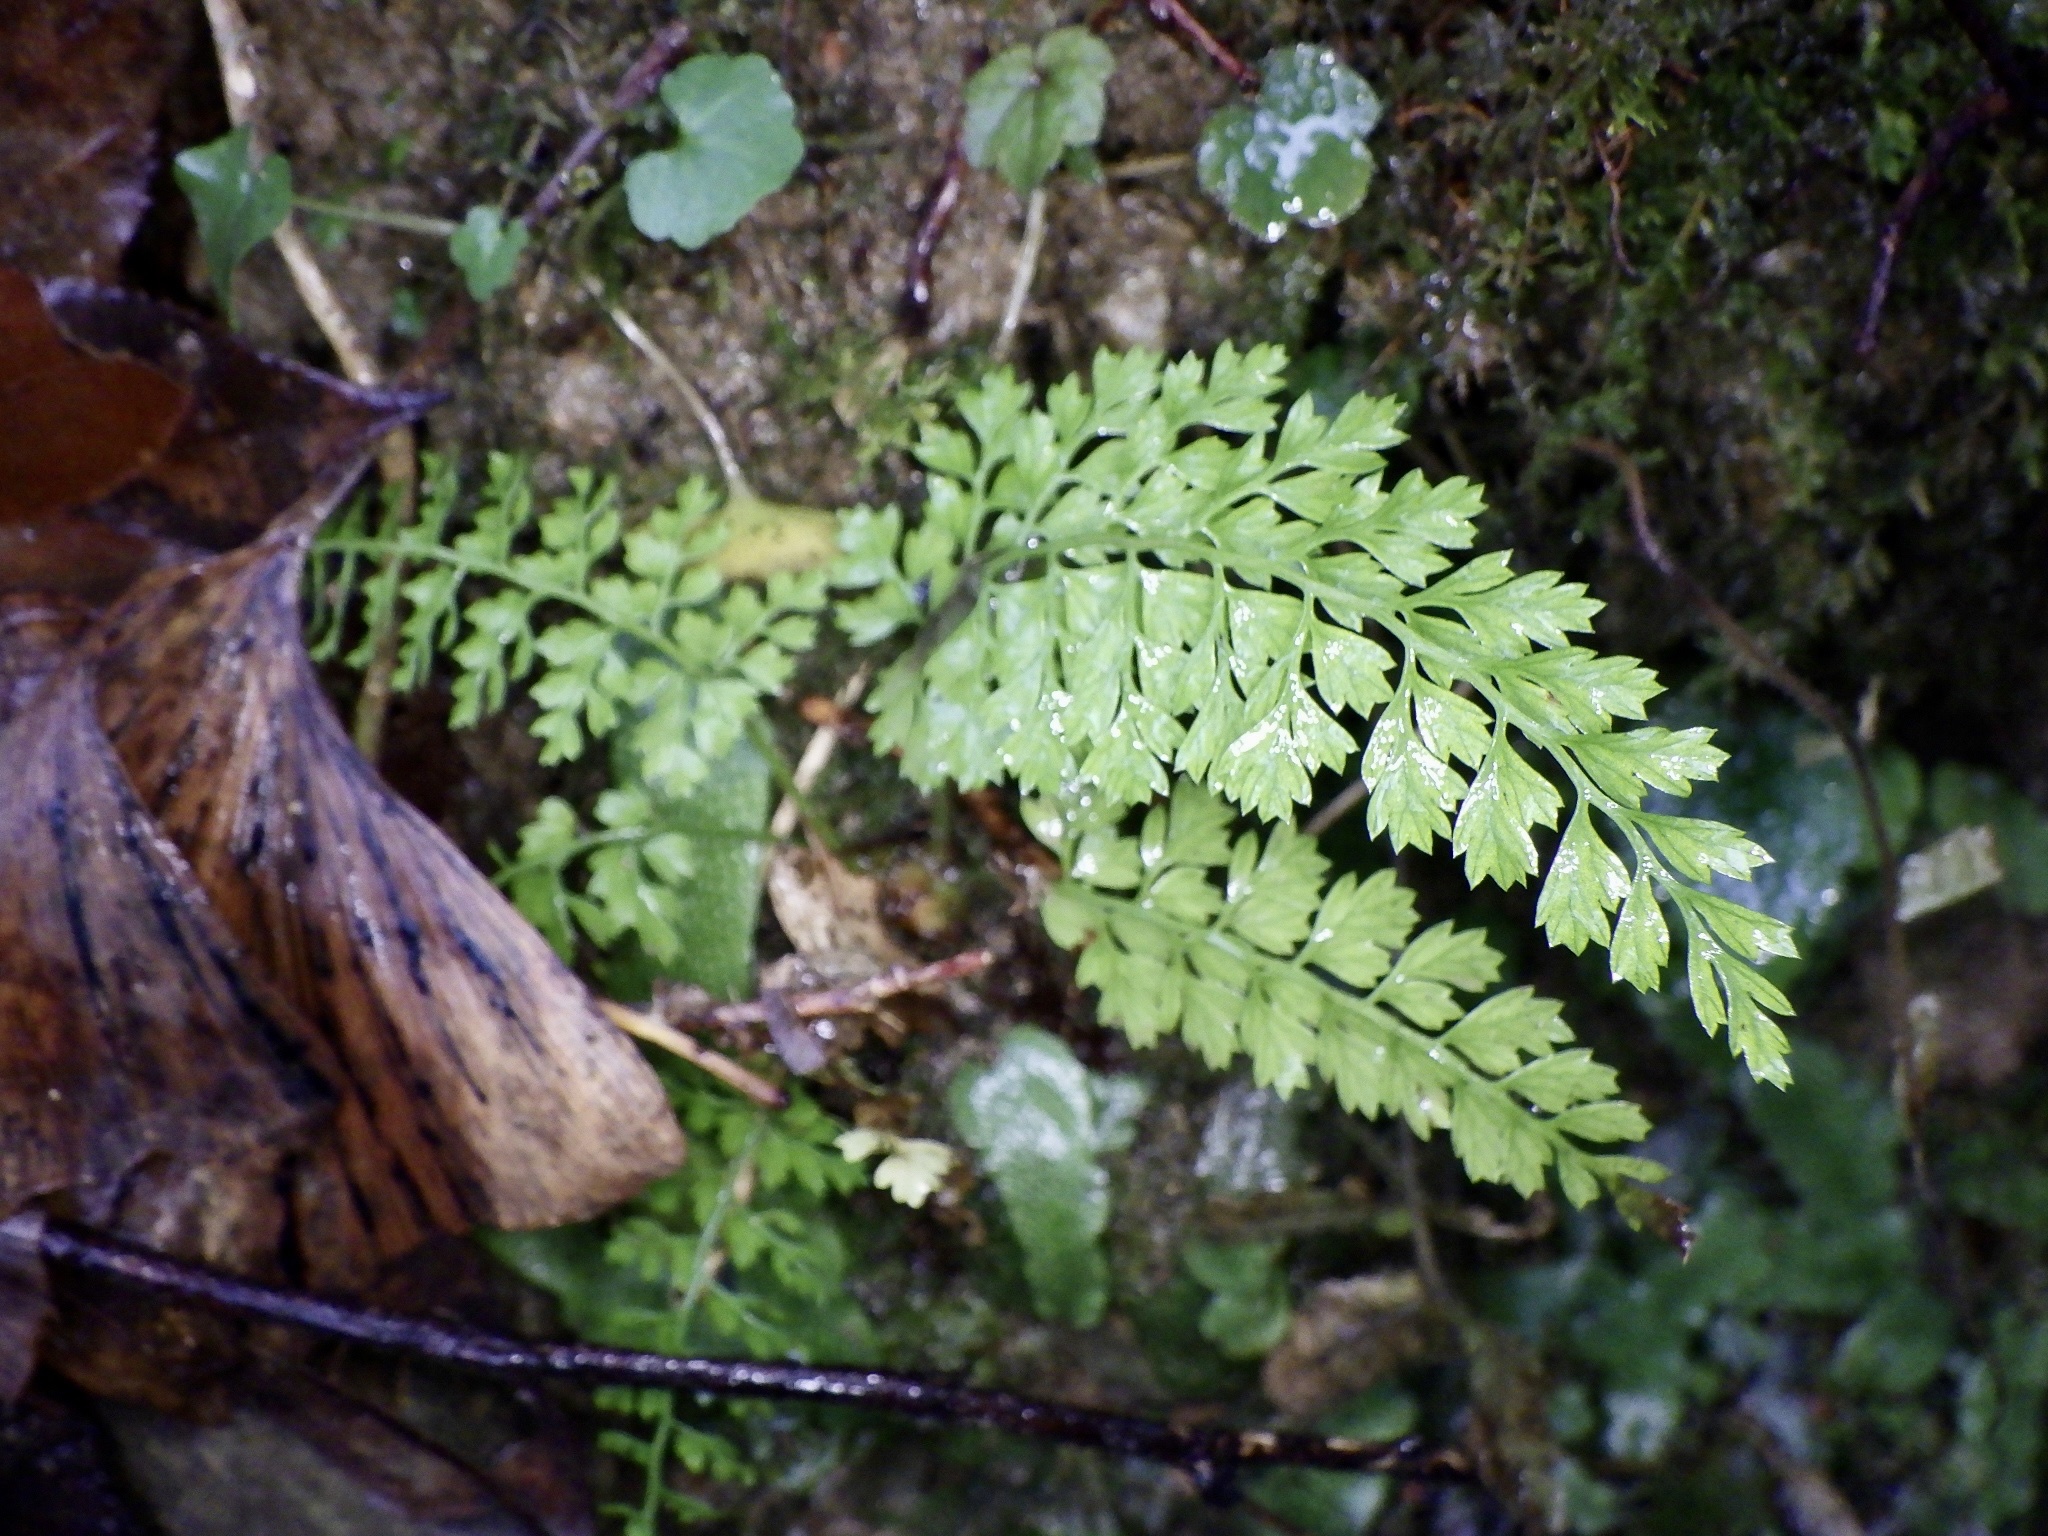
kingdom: Plantae
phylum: Tracheophyta
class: Polypodiopsida
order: Polypodiales
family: Aspleniaceae
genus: Asplenium
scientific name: Asplenium incisum
